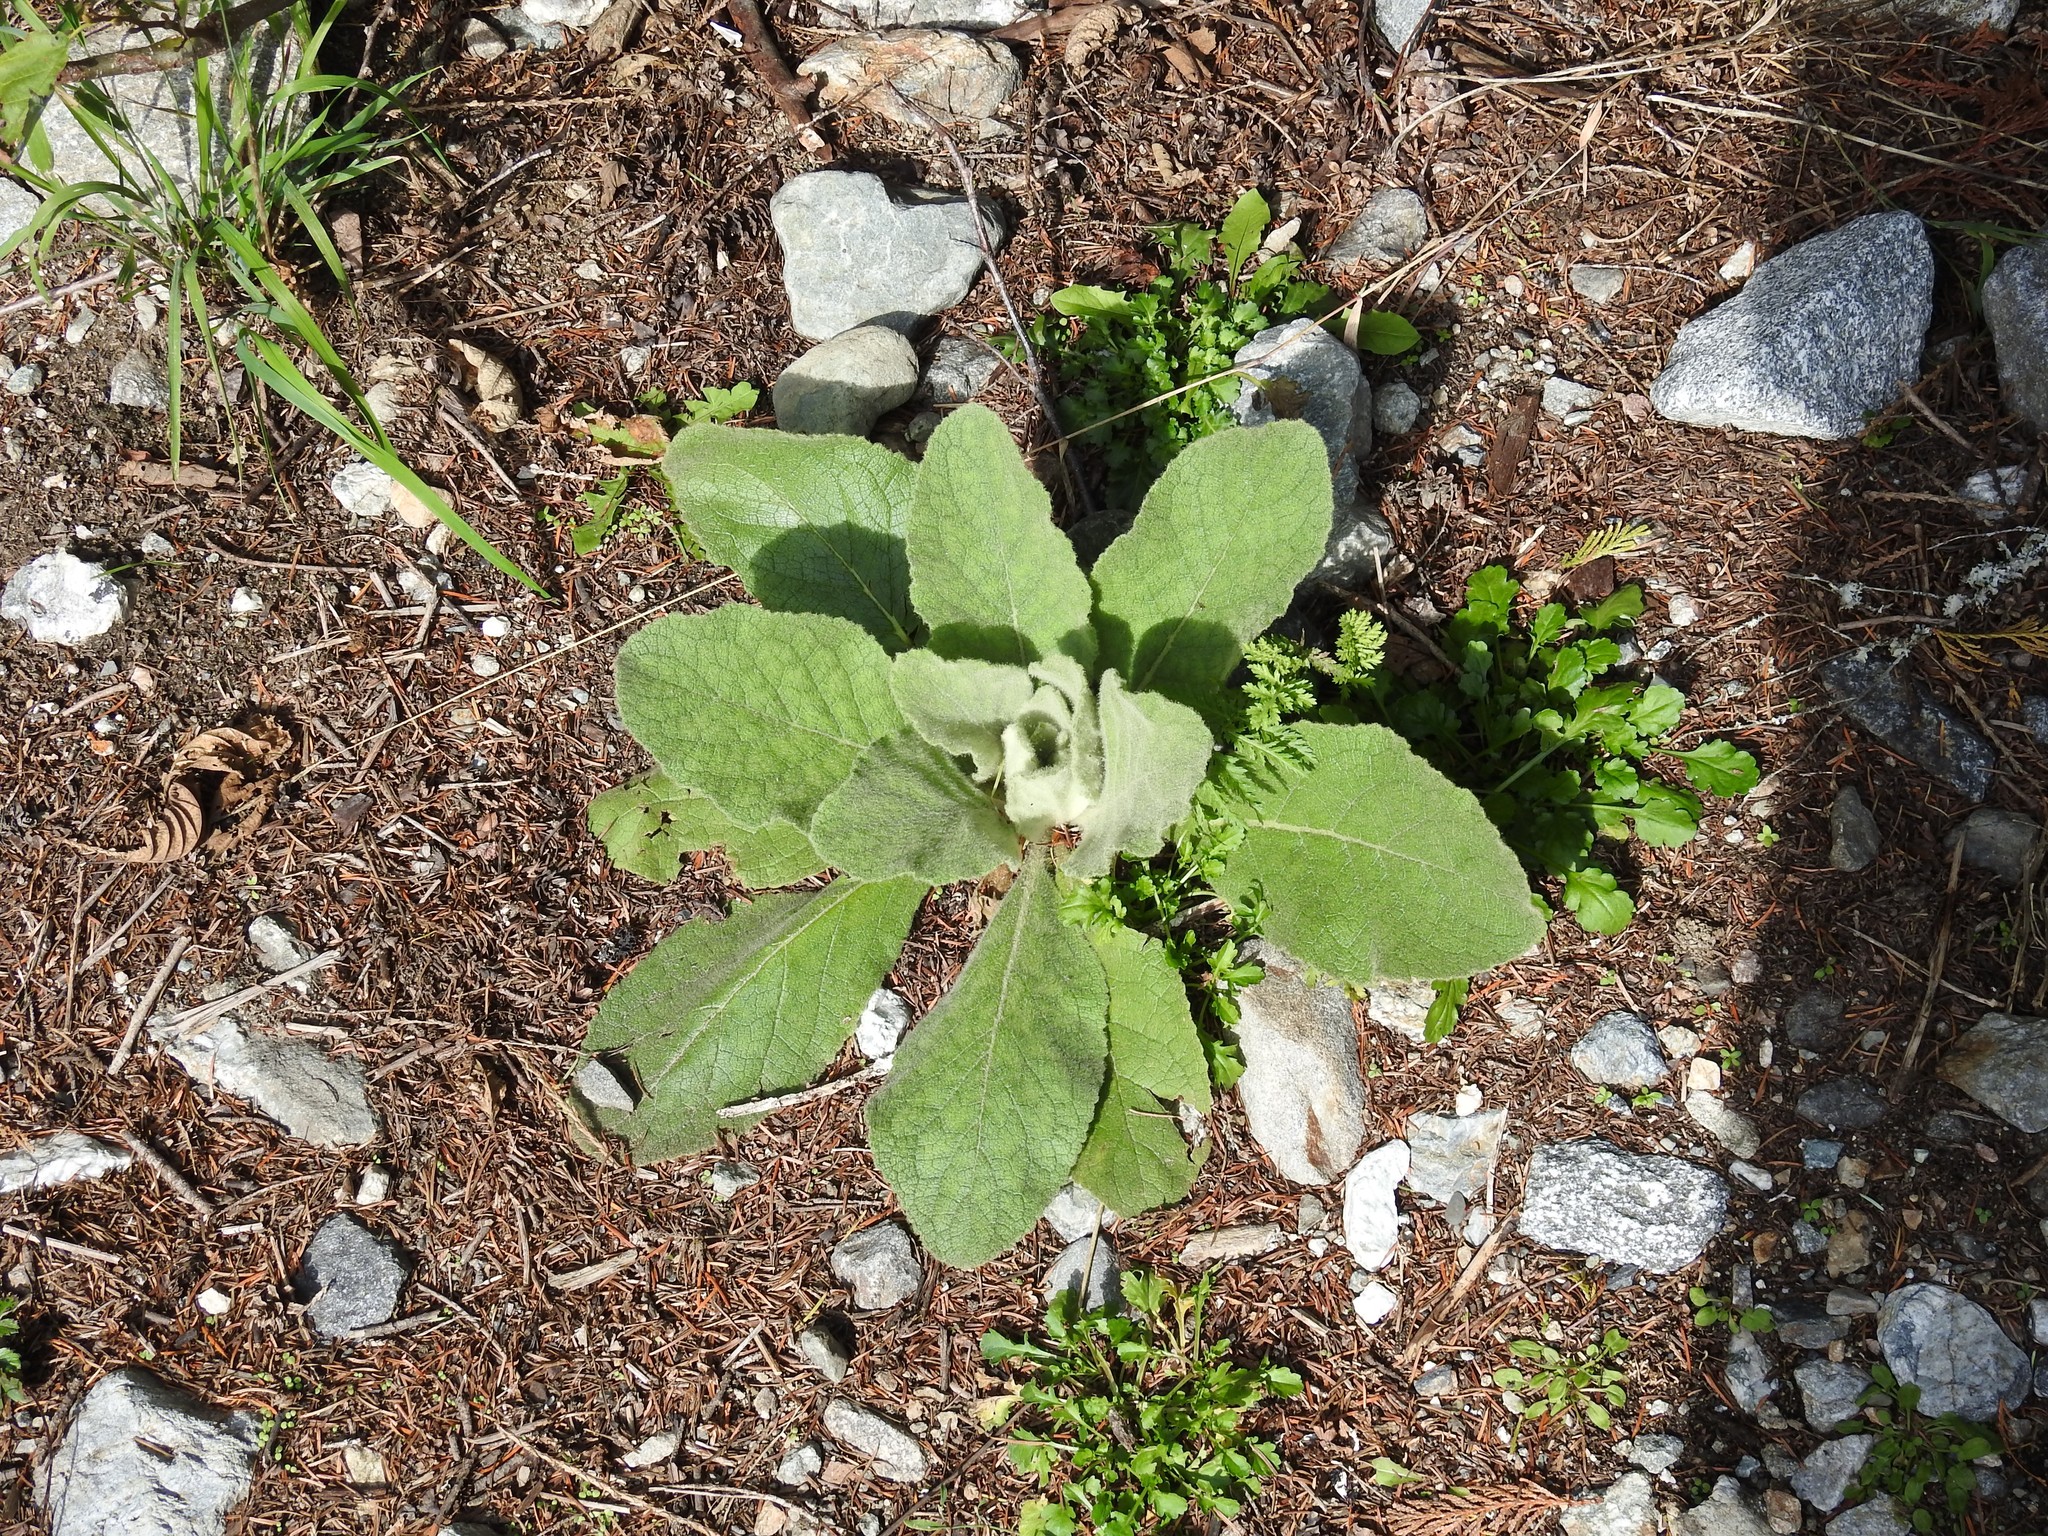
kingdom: Plantae
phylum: Tracheophyta
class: Magnoliopsida
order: Lamiales
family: Scrophulariaceae
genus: Verbascum
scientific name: Verbascum thapsus
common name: Common mullein
